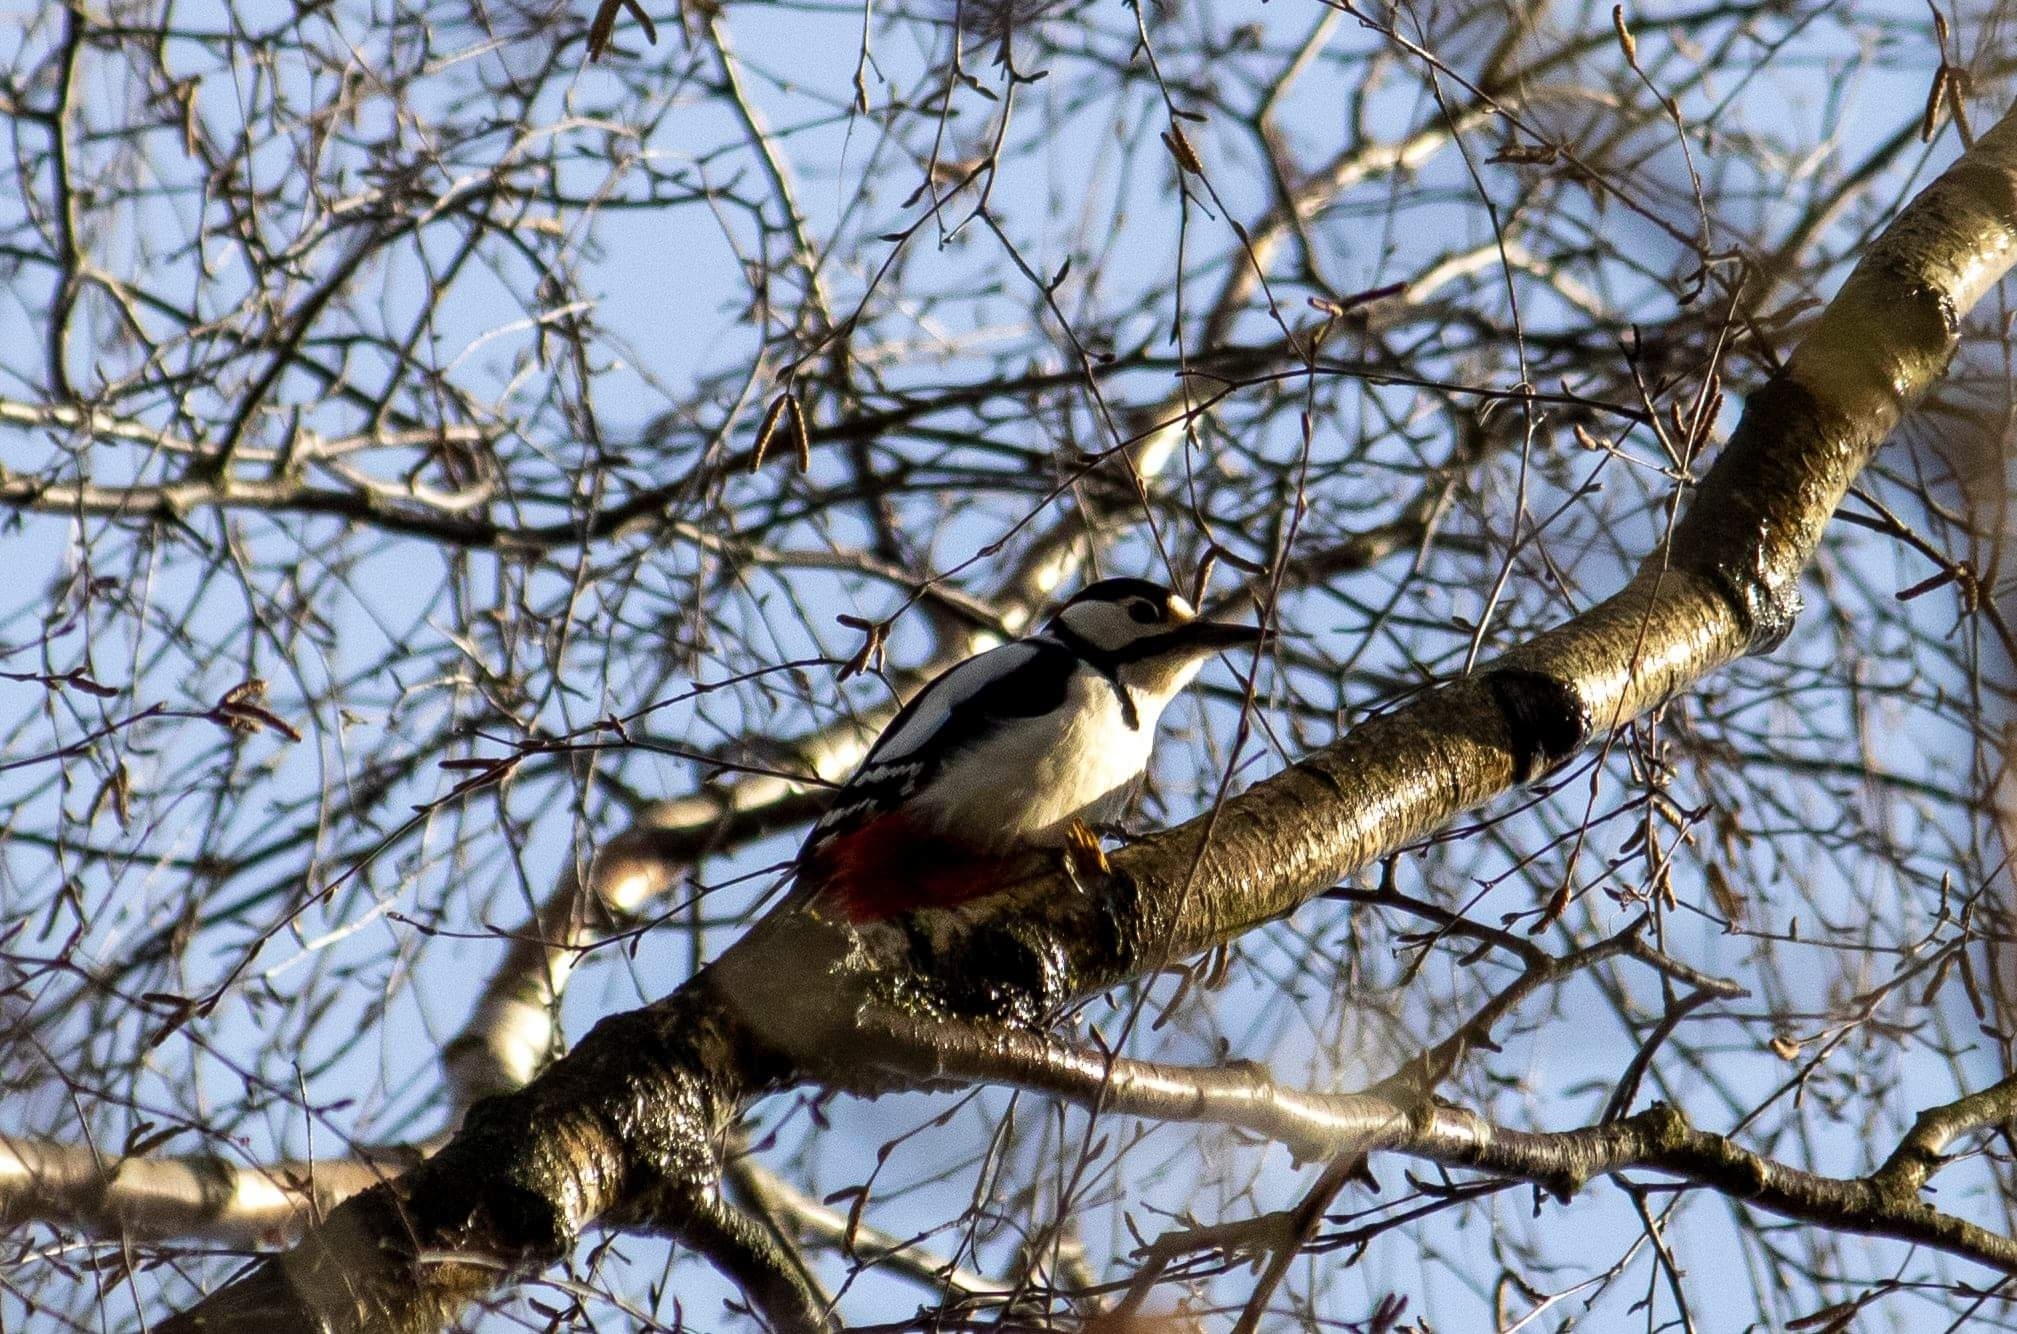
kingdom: Animalia
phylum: Chordata
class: Aves
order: Piciformes
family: Picidae
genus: Dendrocopos
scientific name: Dendrocopos major
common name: Great spotted woodpecker
